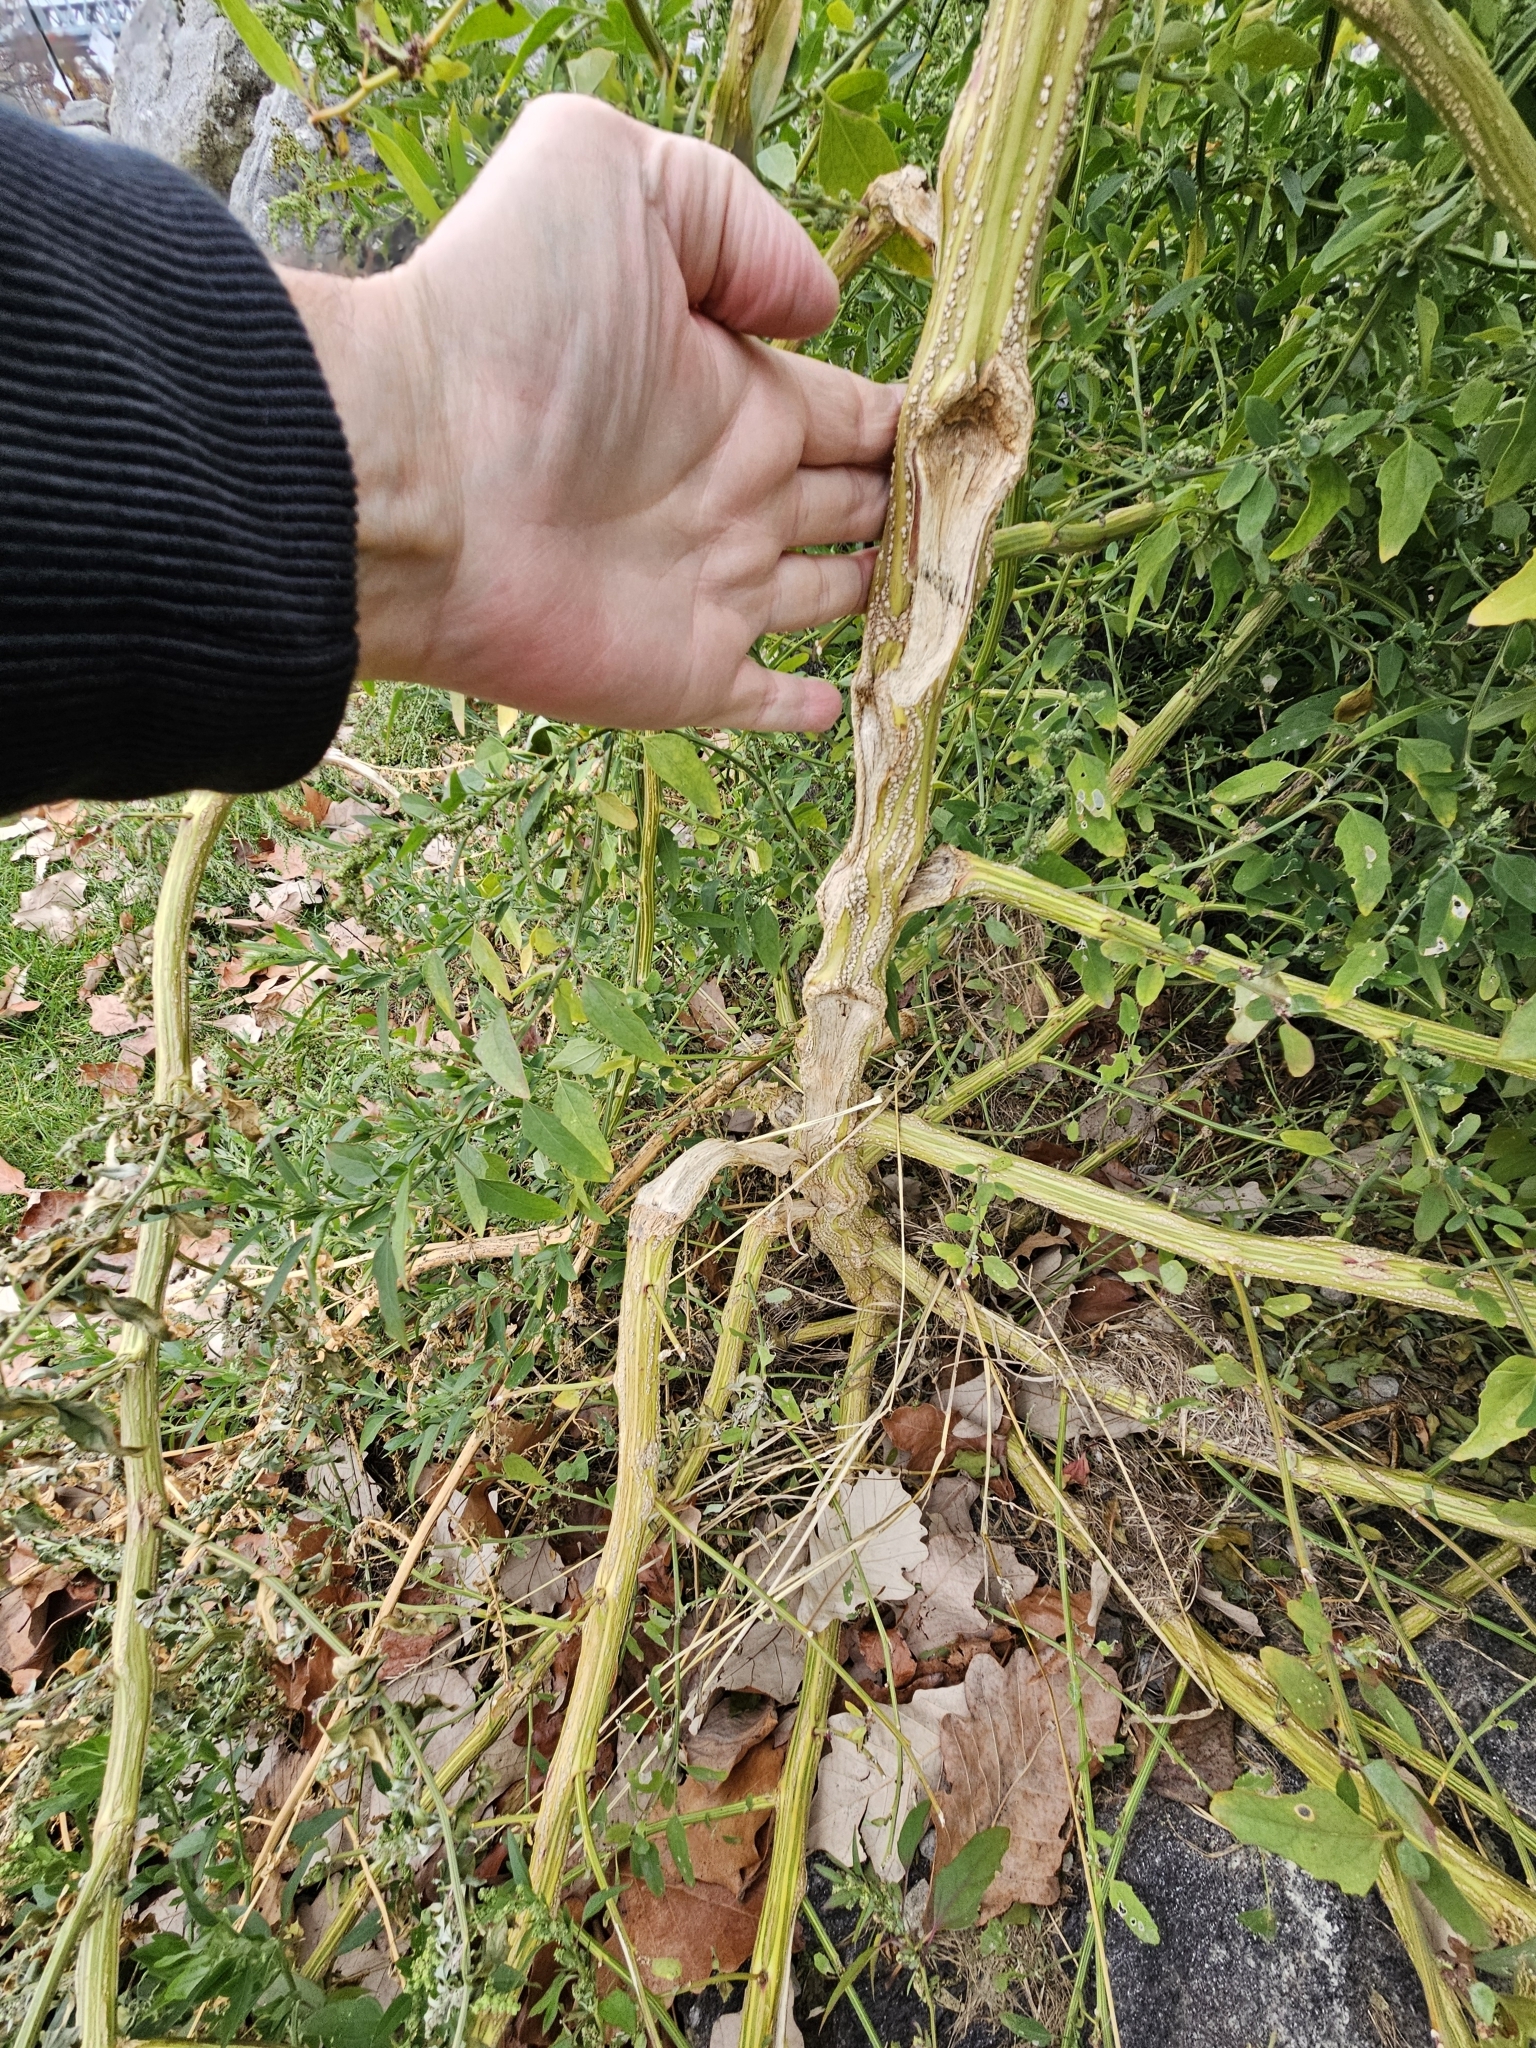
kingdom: Plantae
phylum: Tracheophyta
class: Magnoliopsida
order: Caryophyllales
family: Amaranthaceae
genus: Chenopodium
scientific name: Chenopodium album
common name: Fat-hen
